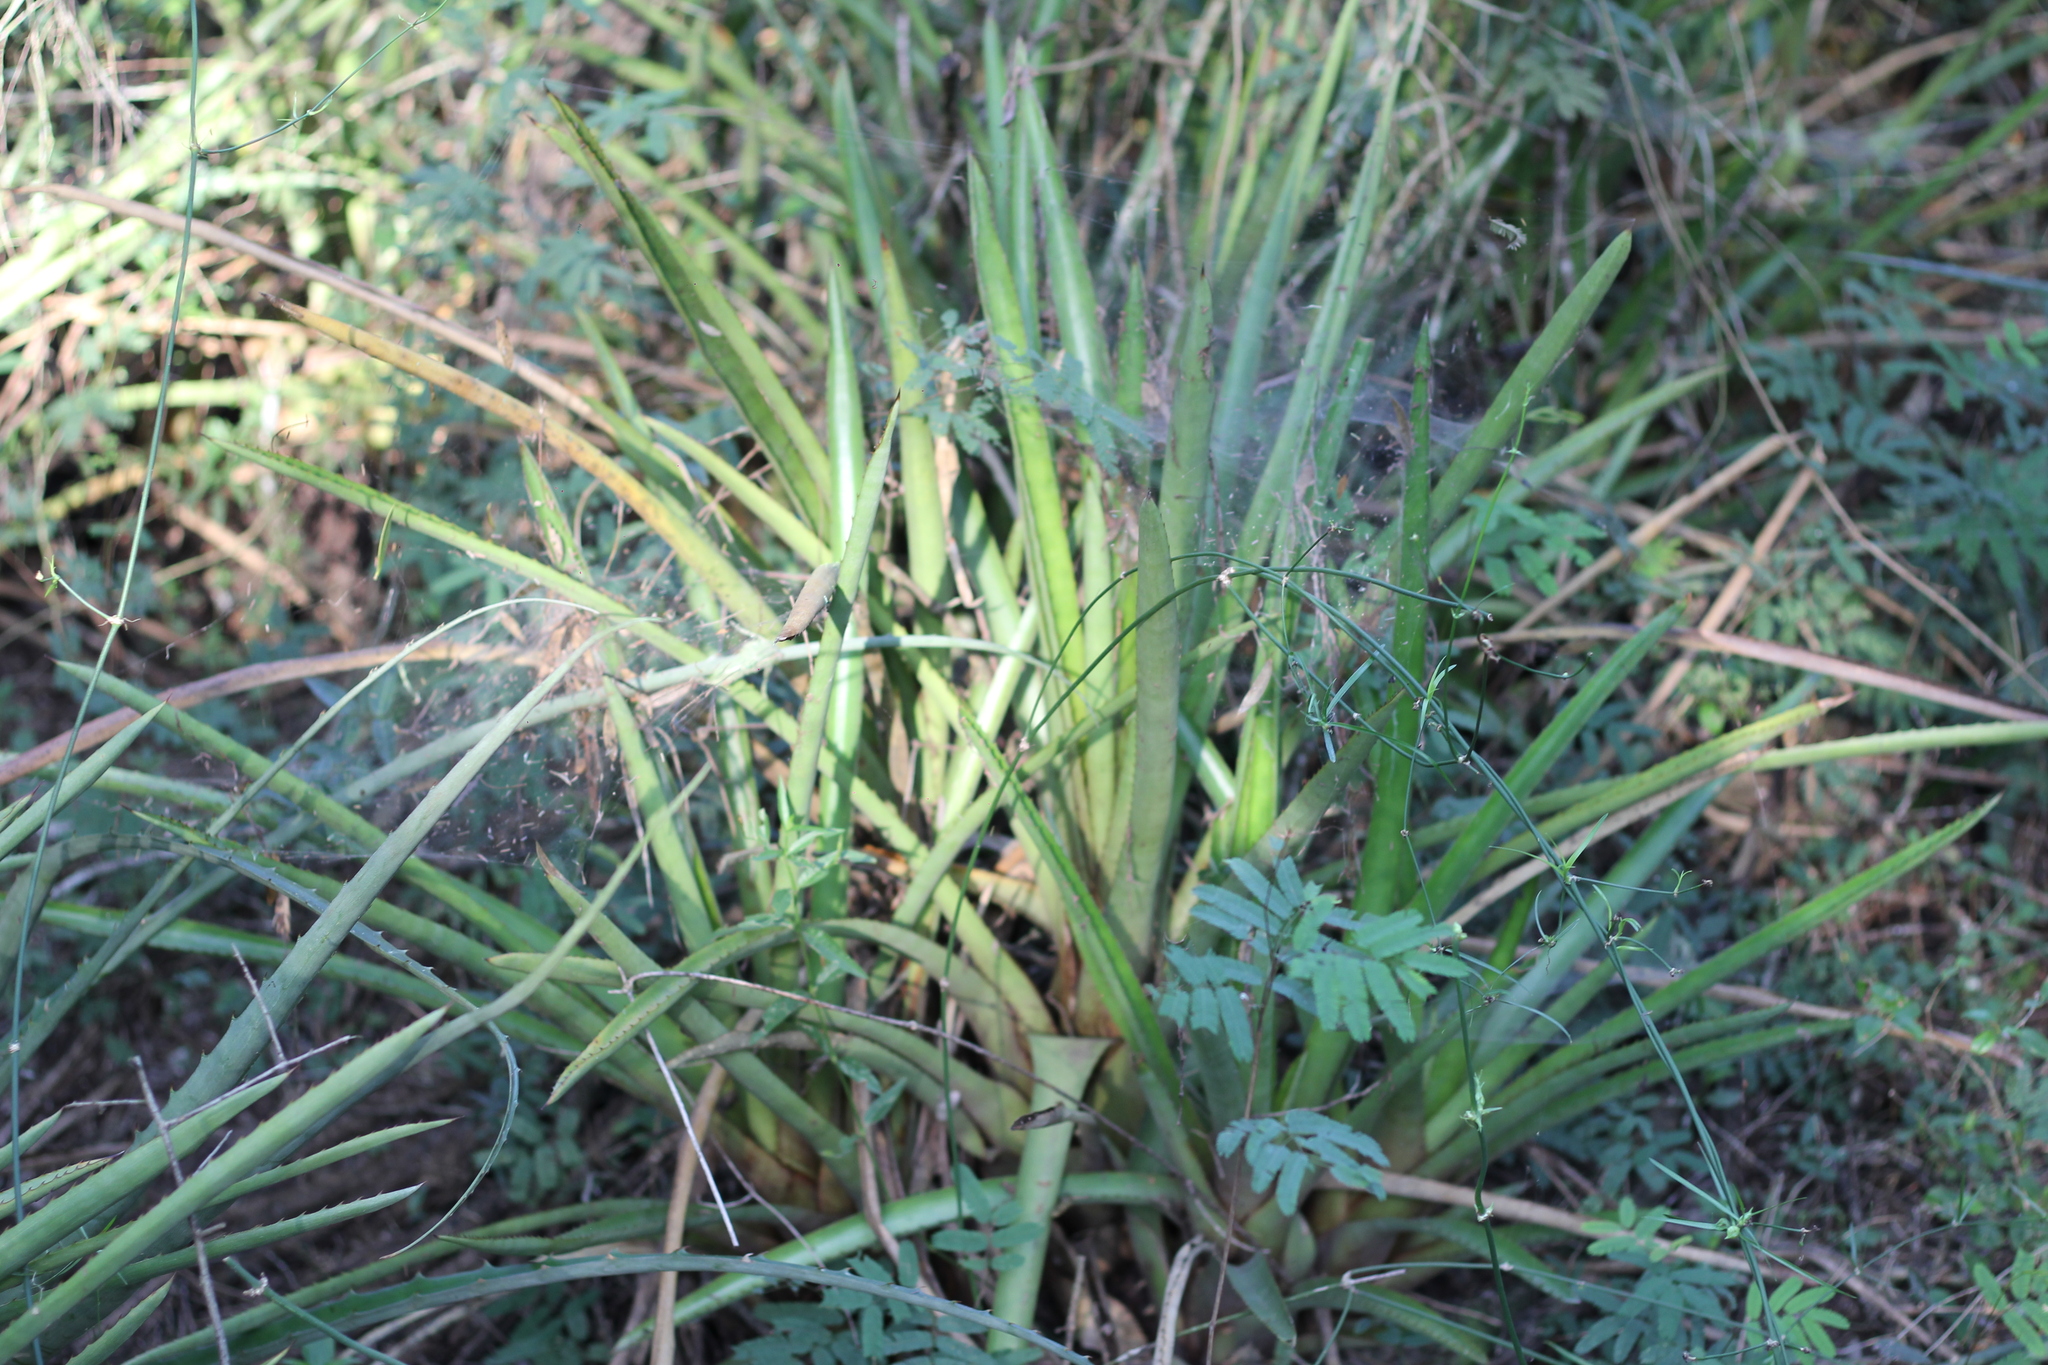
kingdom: Plantae
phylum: Tracheophyta
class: Liliopsida
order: Poales
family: Bromeliaceae
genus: Aechmea
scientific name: Aechmea distichantha
